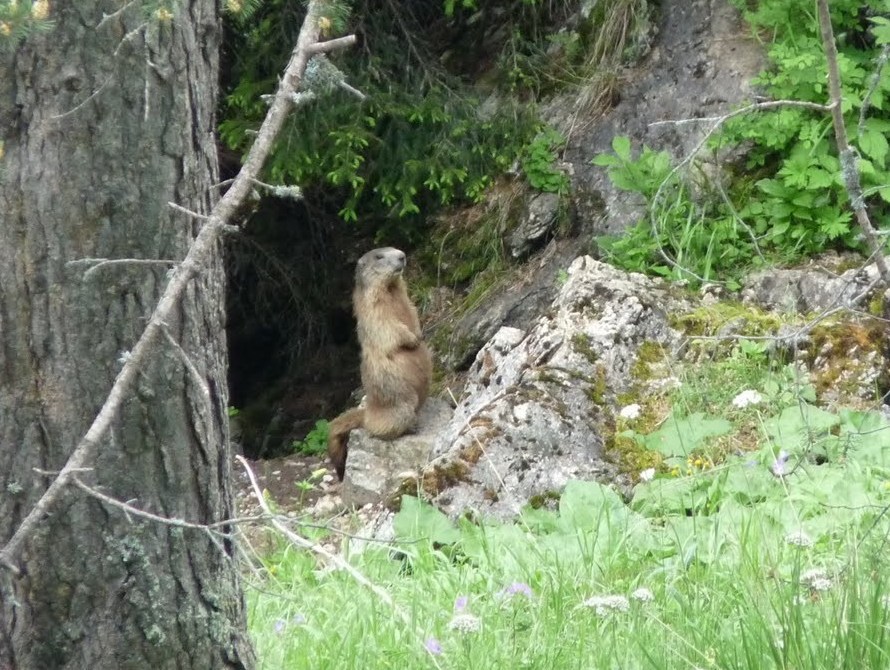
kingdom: Animalia
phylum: Chordata
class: Mammalia
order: Rodentia
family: Sciuridae
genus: Marmota
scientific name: Marmota marmota
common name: Alpine marmot
